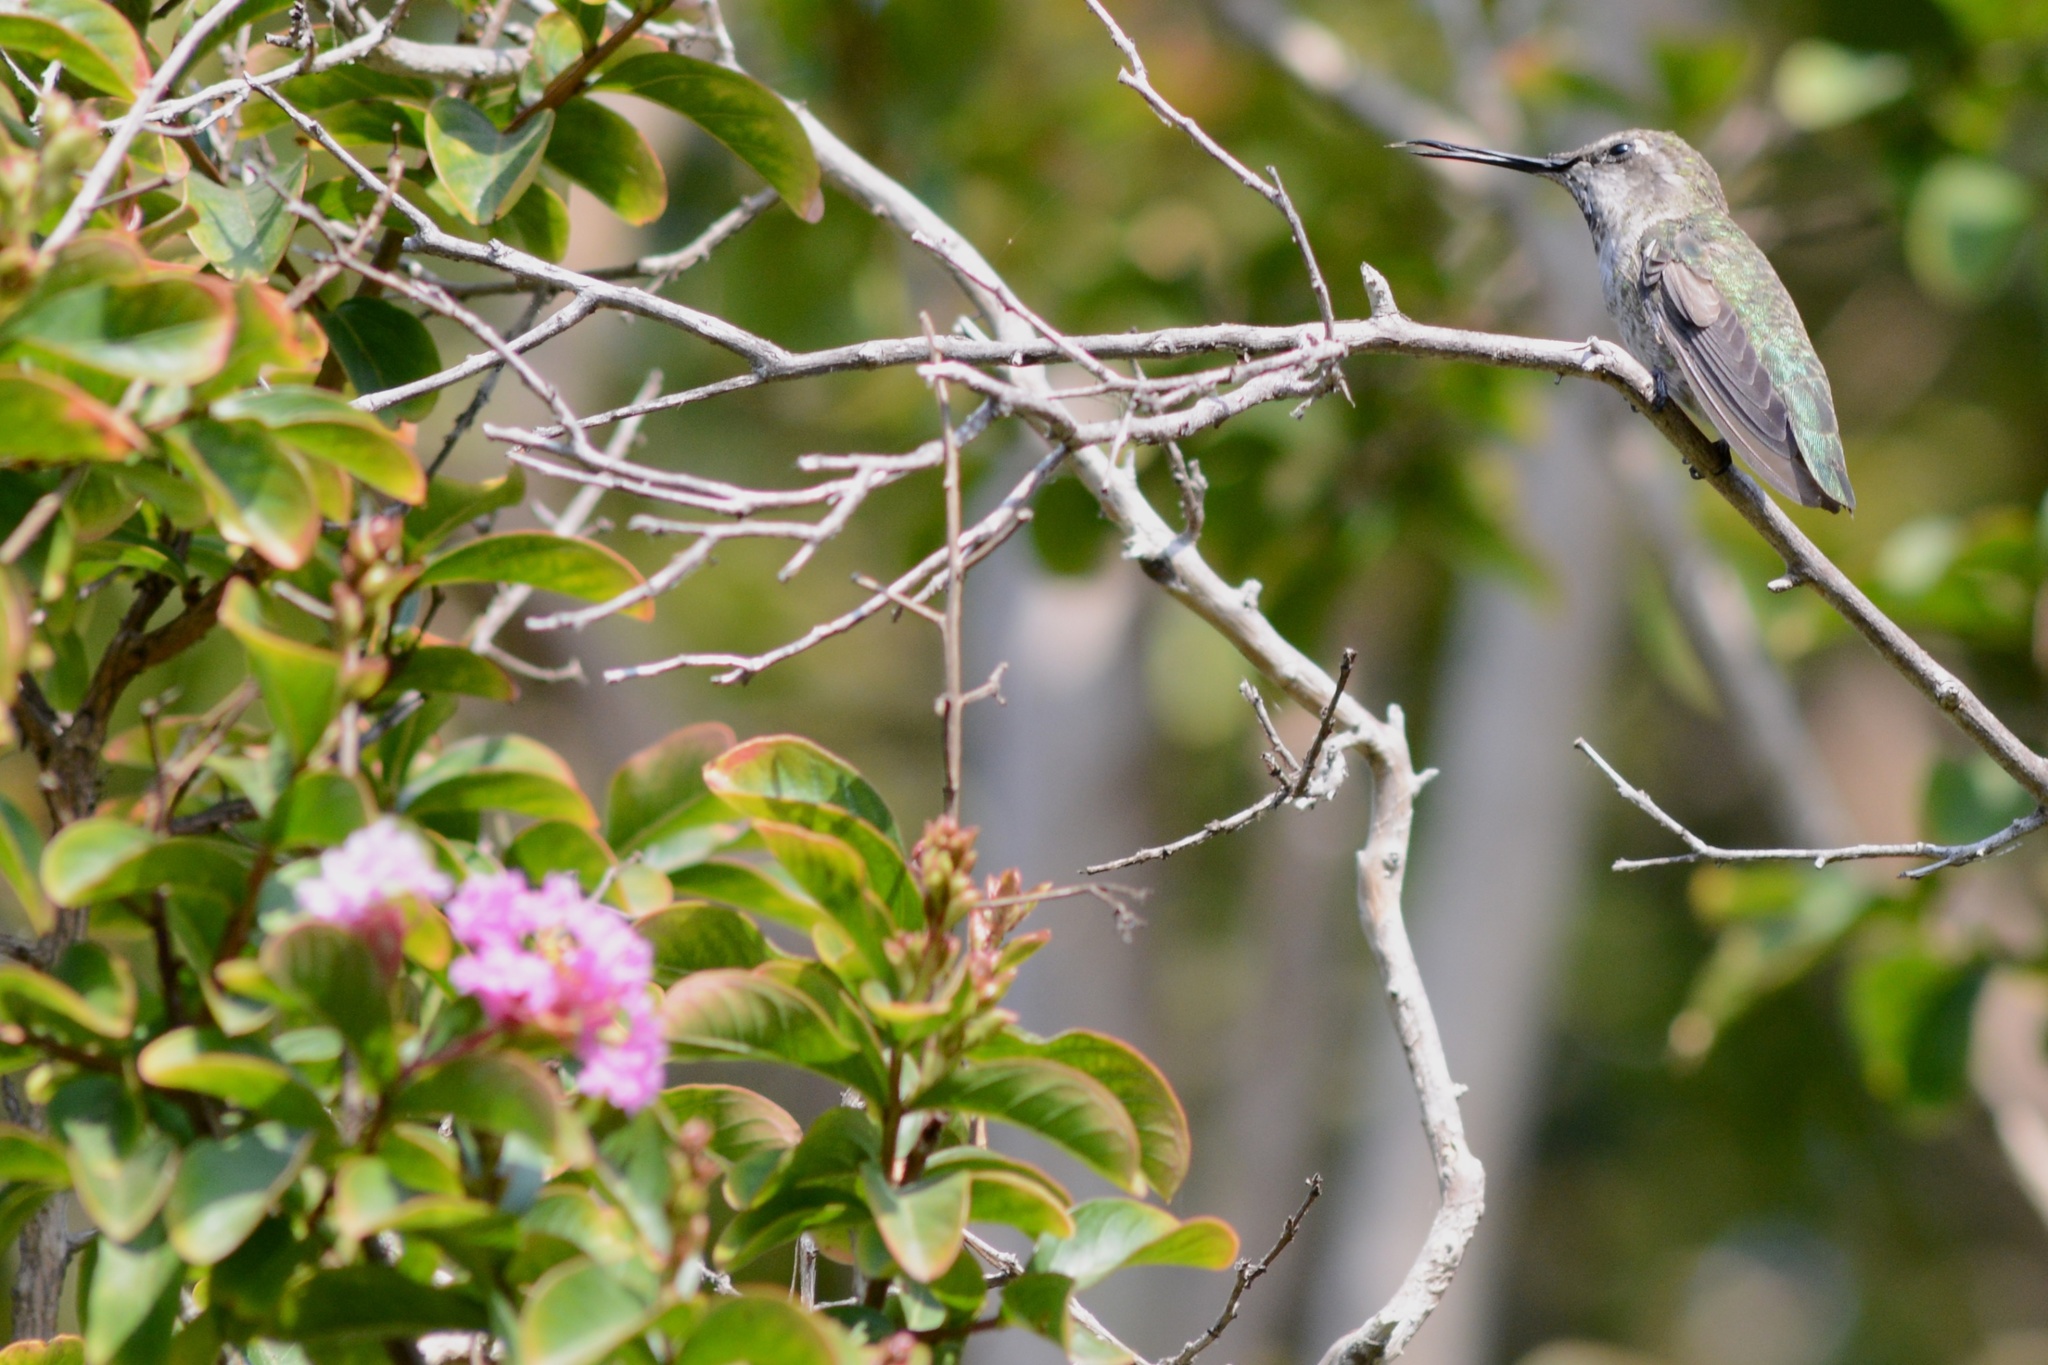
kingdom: Animalia
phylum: Chordata
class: Aves
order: Apodiformes
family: Trochilidae
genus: Calypte
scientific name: Calypte anna
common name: Anna's hummingbird
